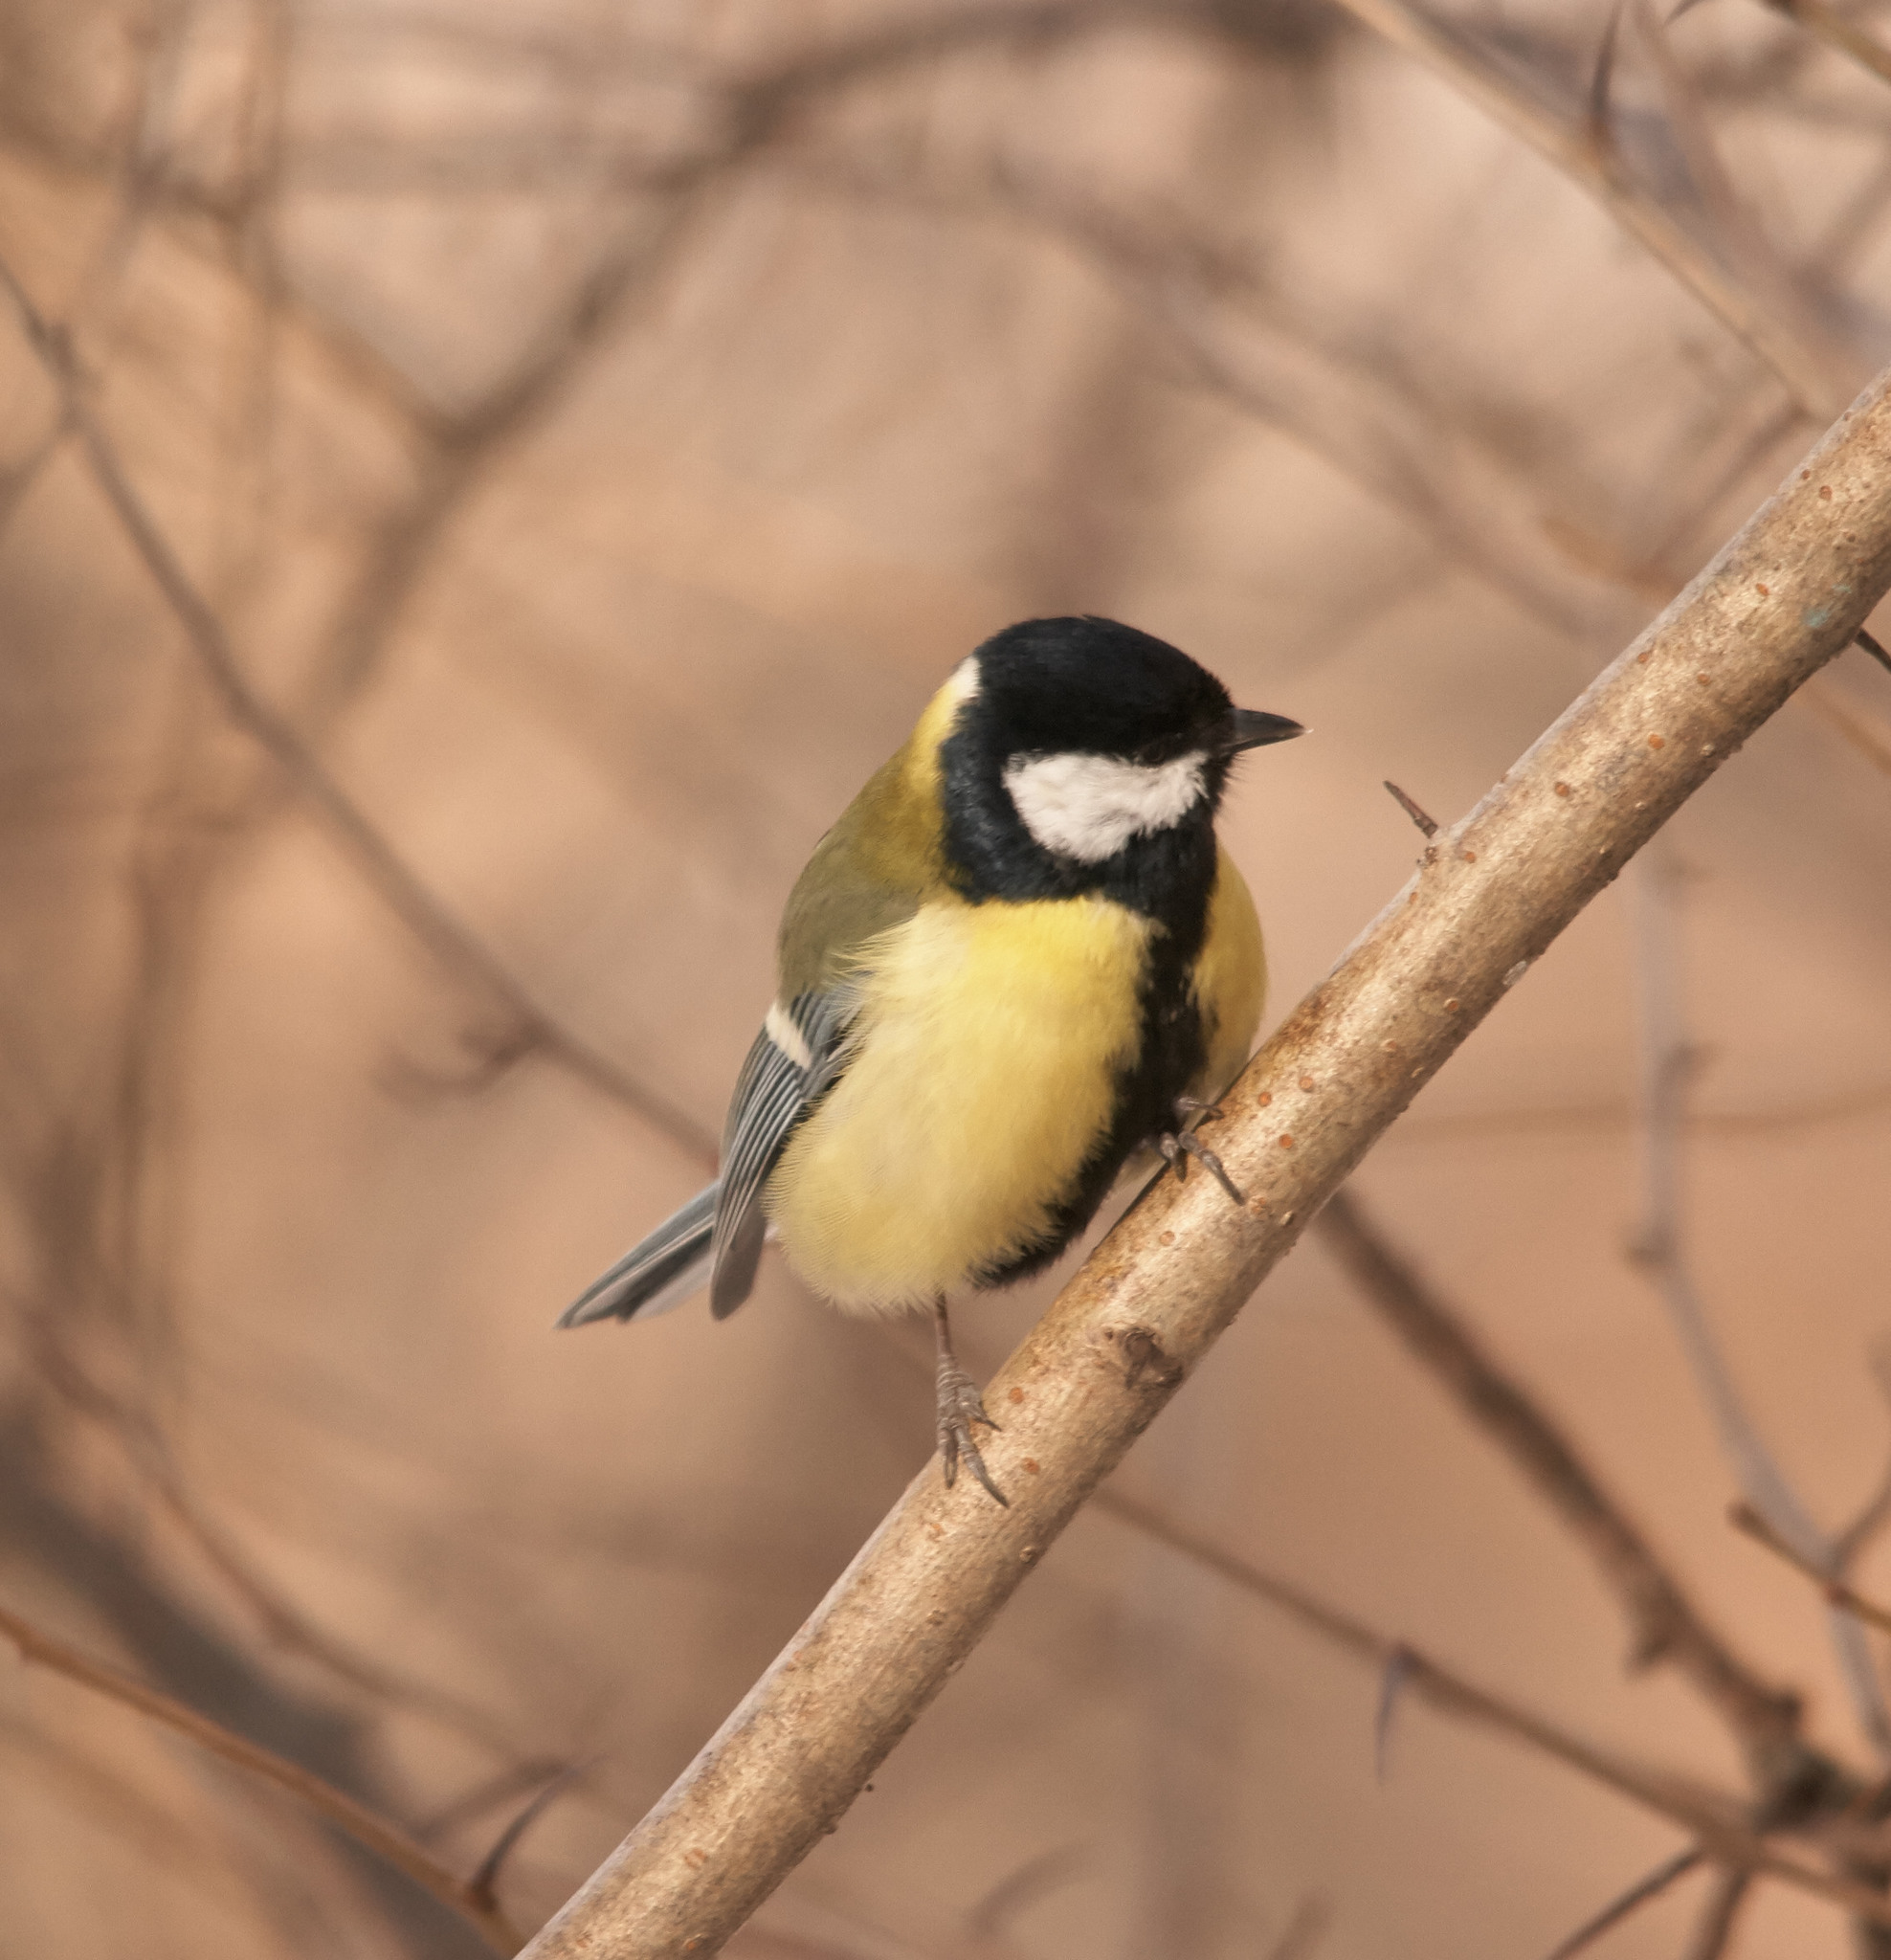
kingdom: Animalia
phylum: Chordata
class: Aves
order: Passeriformes
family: Paridae
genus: Parus
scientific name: Parus major
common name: Great tit
